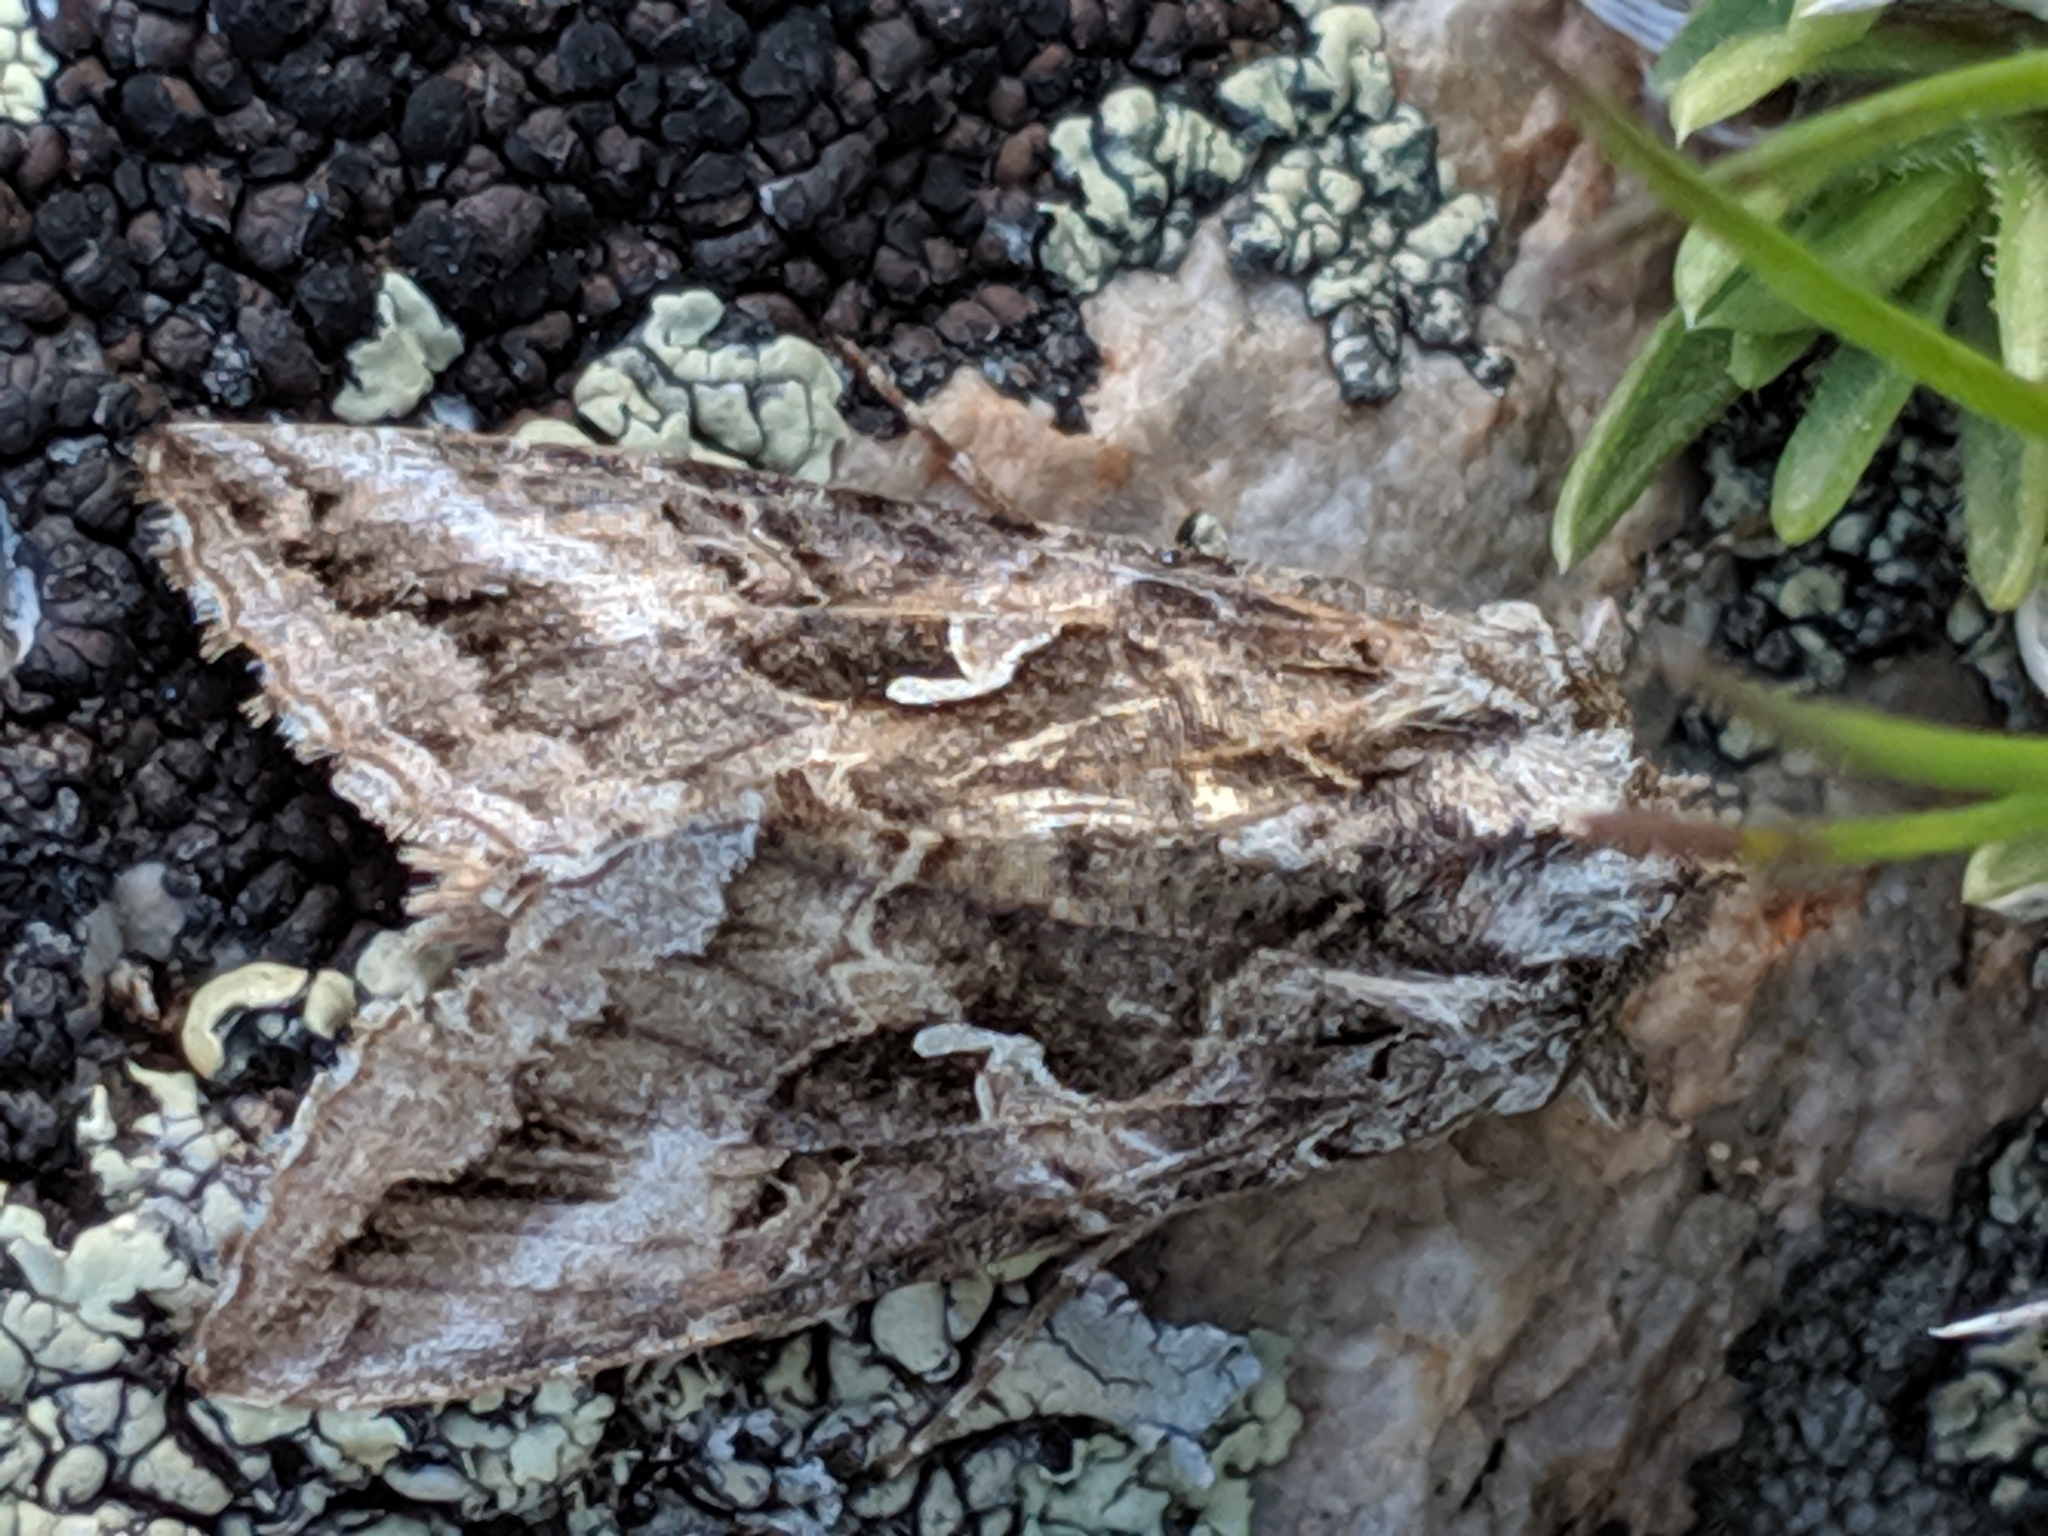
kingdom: Animalia
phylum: Arthropoda
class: Insecta
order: Lepidoptera
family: Noctuidae
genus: Autographa
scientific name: Autographa californica
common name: Alfalfa looper
